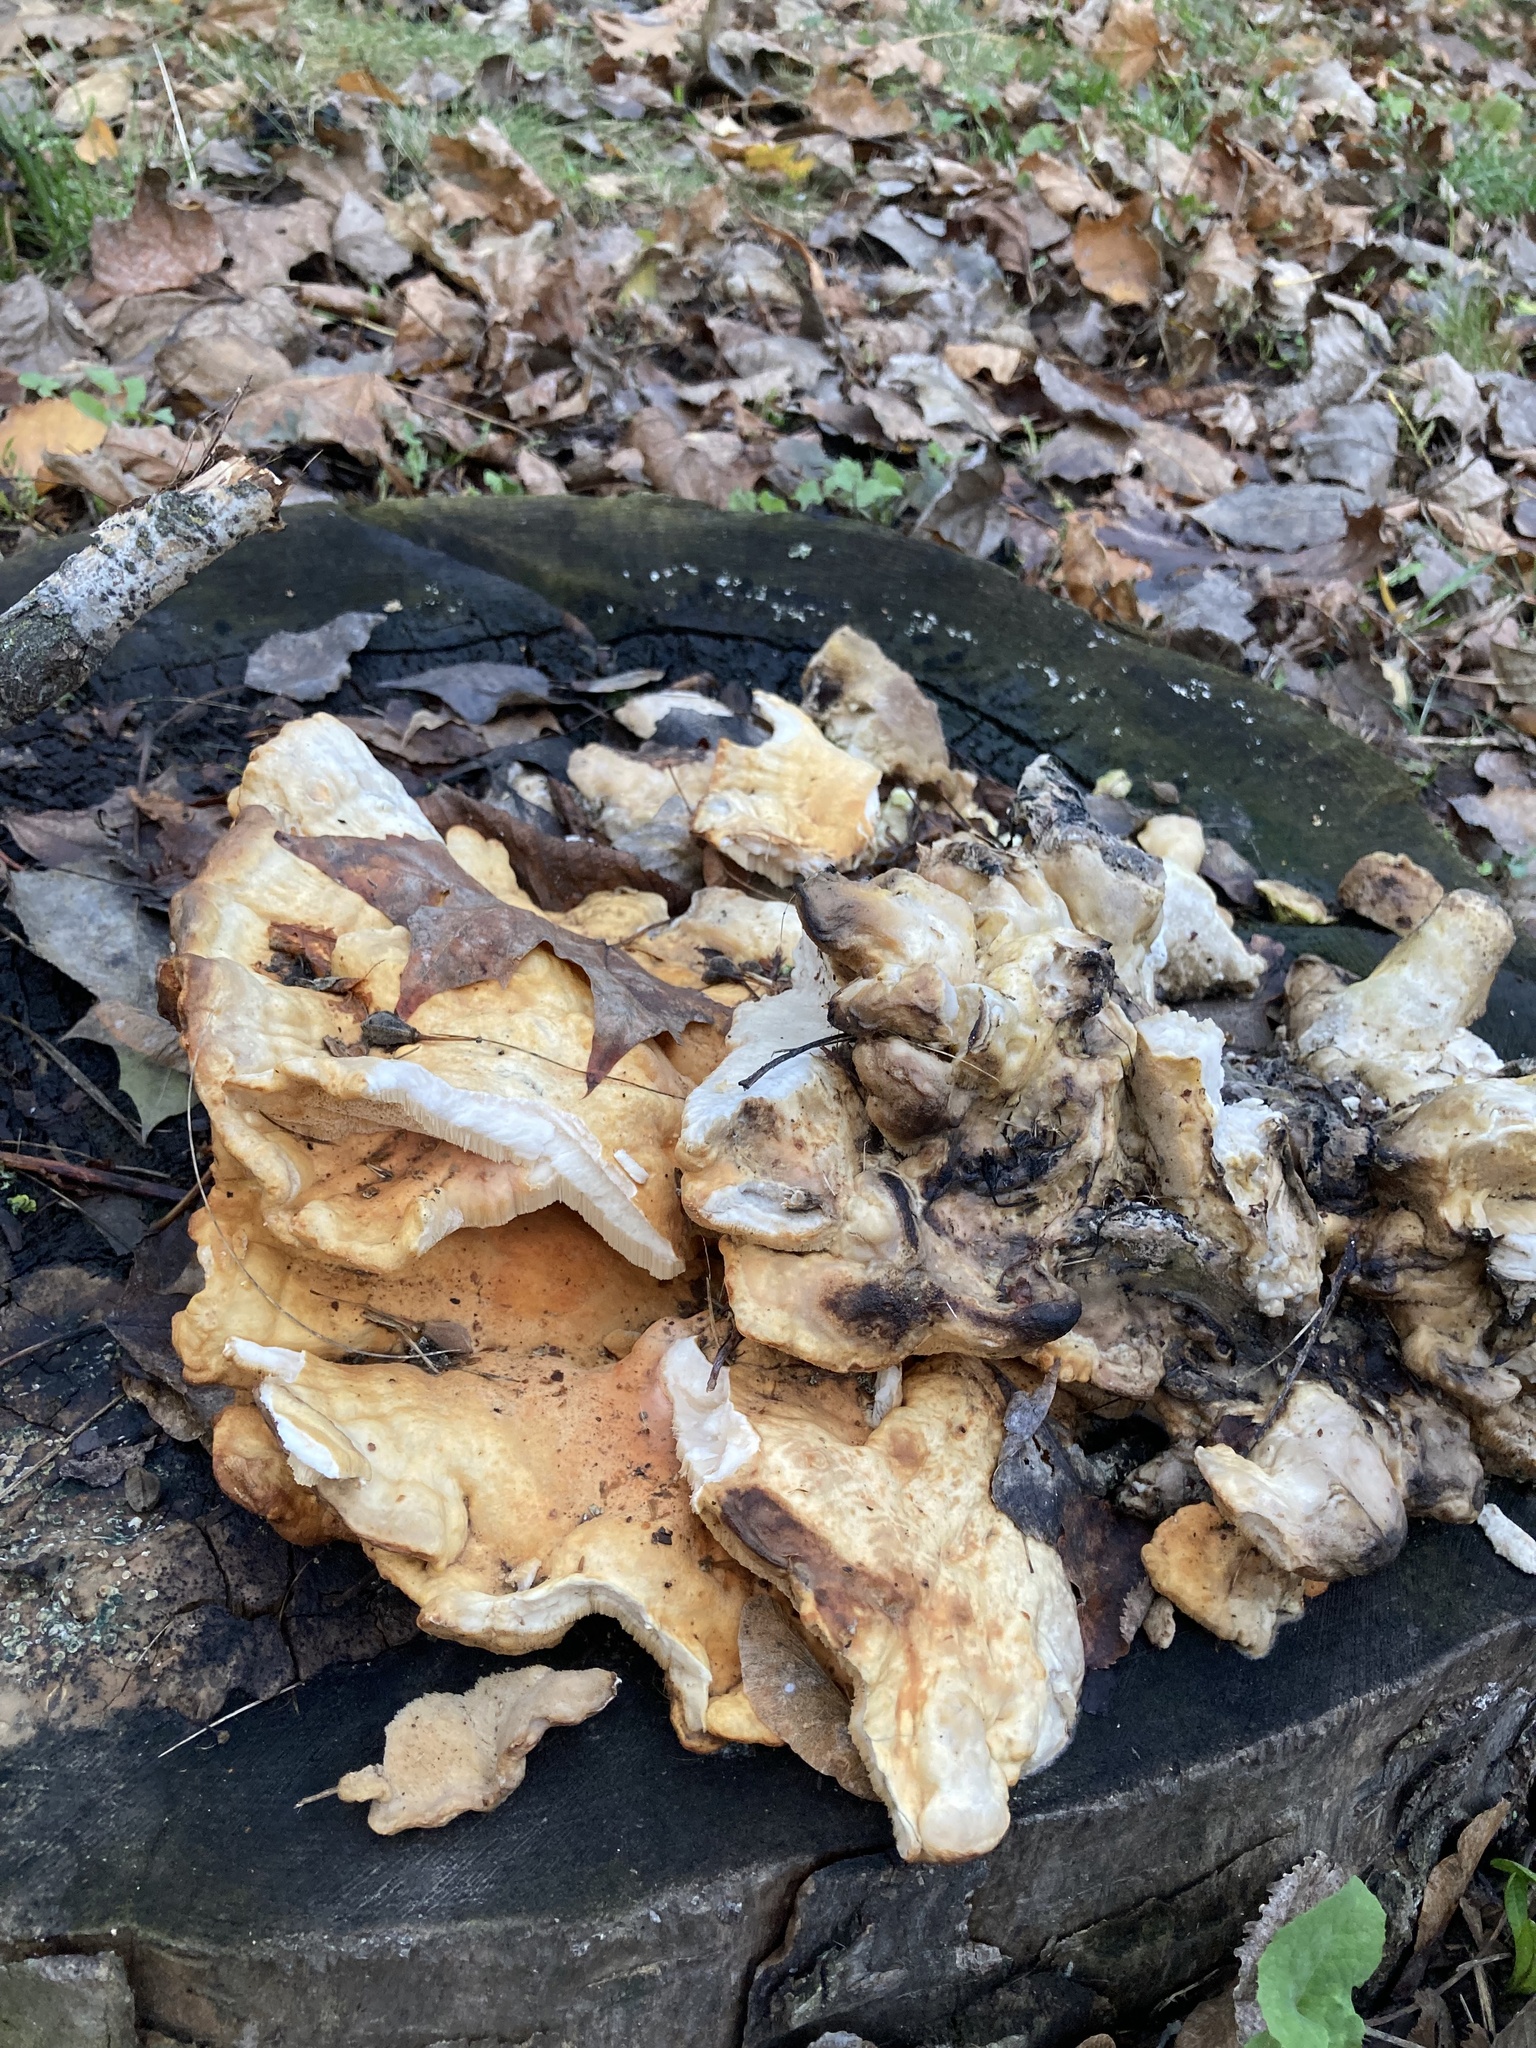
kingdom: Fungi
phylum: Basidiomycota
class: Agaricomycetes
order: Polyporales
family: Laetiporaceae
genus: Laetiporus
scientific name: Laetiporus sulphureus
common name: Chicken of the woods
